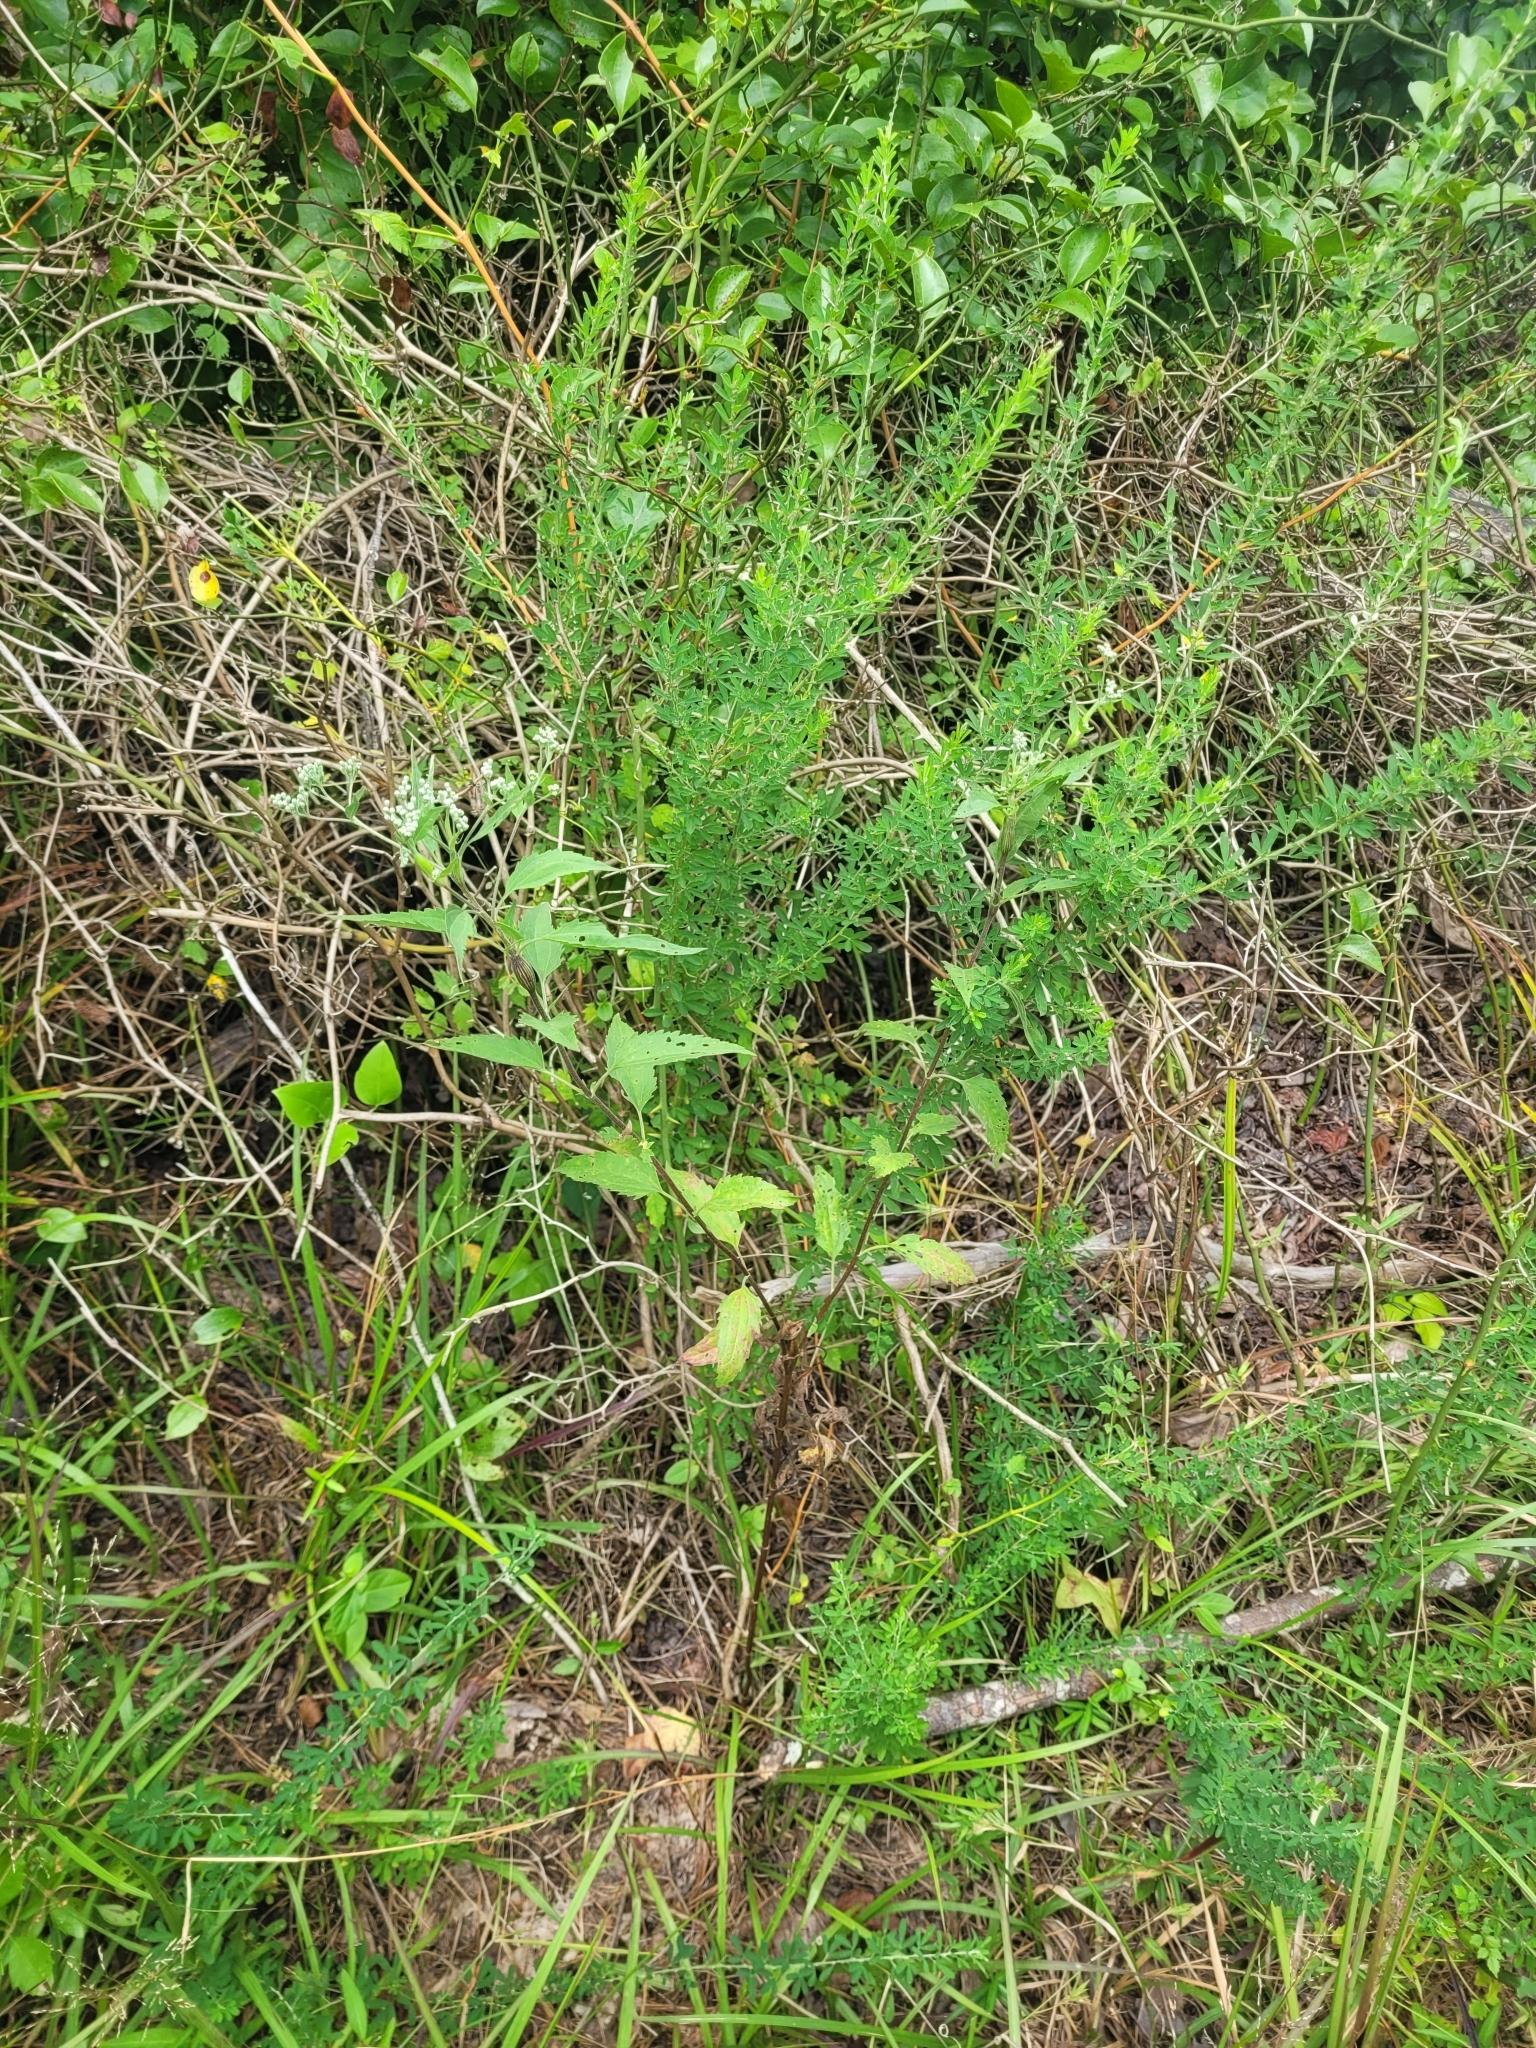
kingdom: Plantae
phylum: Tracheophyta
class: Magnoliopsida
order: Asterales
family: Asteraceae
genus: Eupatorium
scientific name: Eupatorium serotinum
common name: Late boneset
